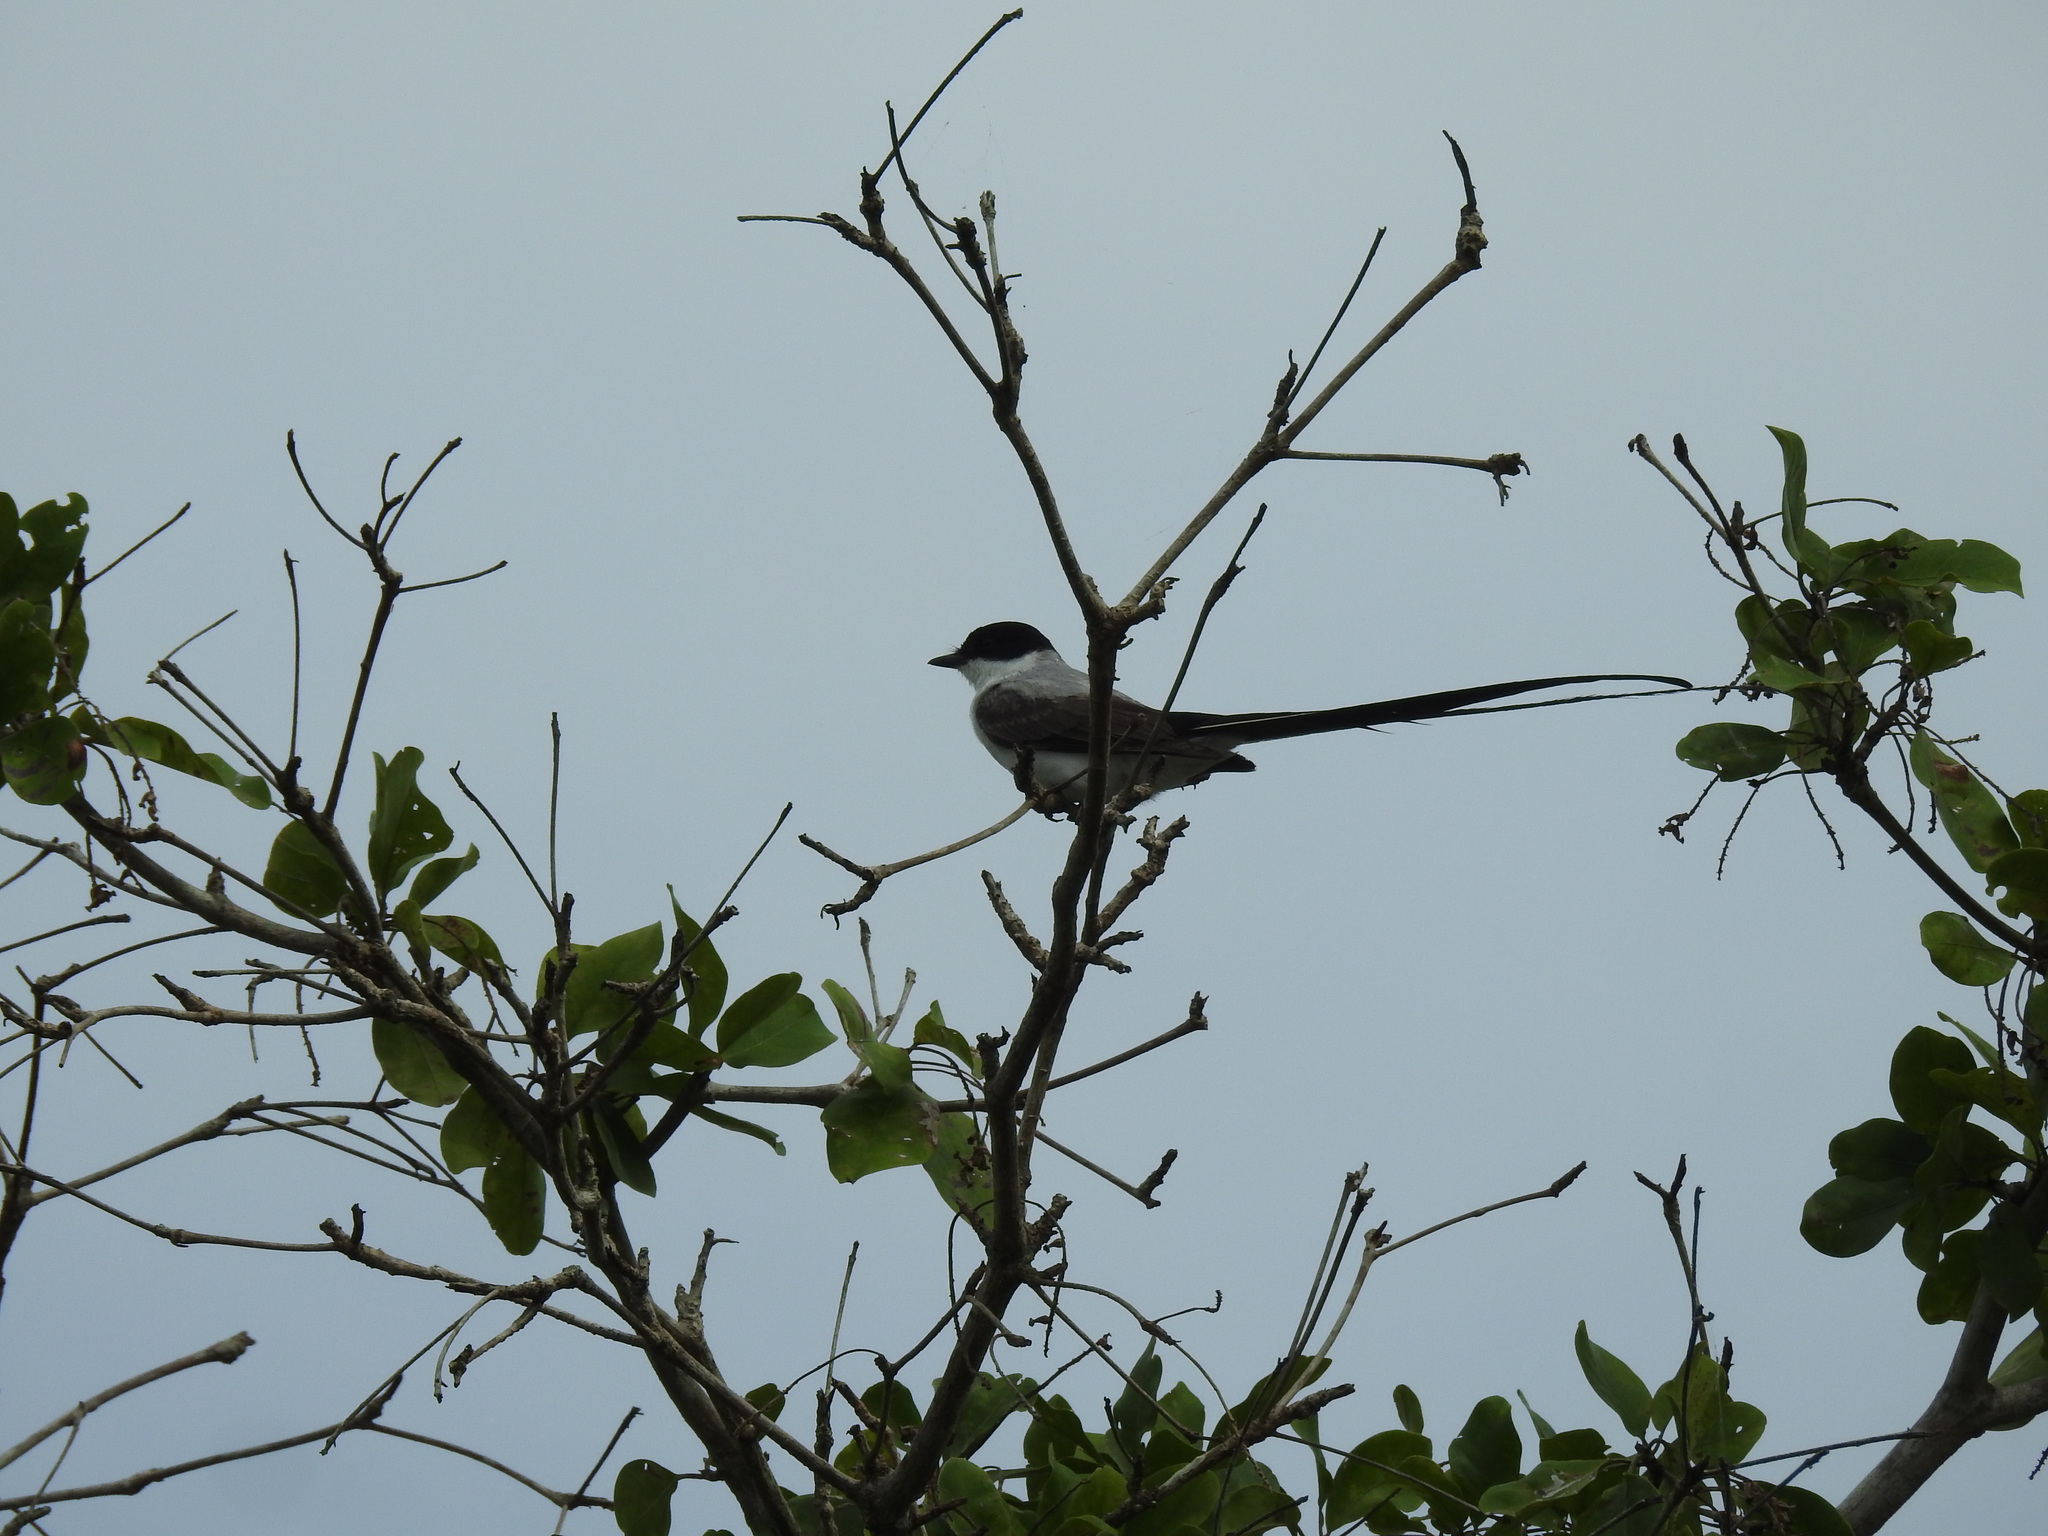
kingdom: Animalia
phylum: Chordata
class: Aves
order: Passeriformes
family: Tyrannidae
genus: Tyrannus
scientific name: Tyrannus savana
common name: Fork-tailed flycatcher
